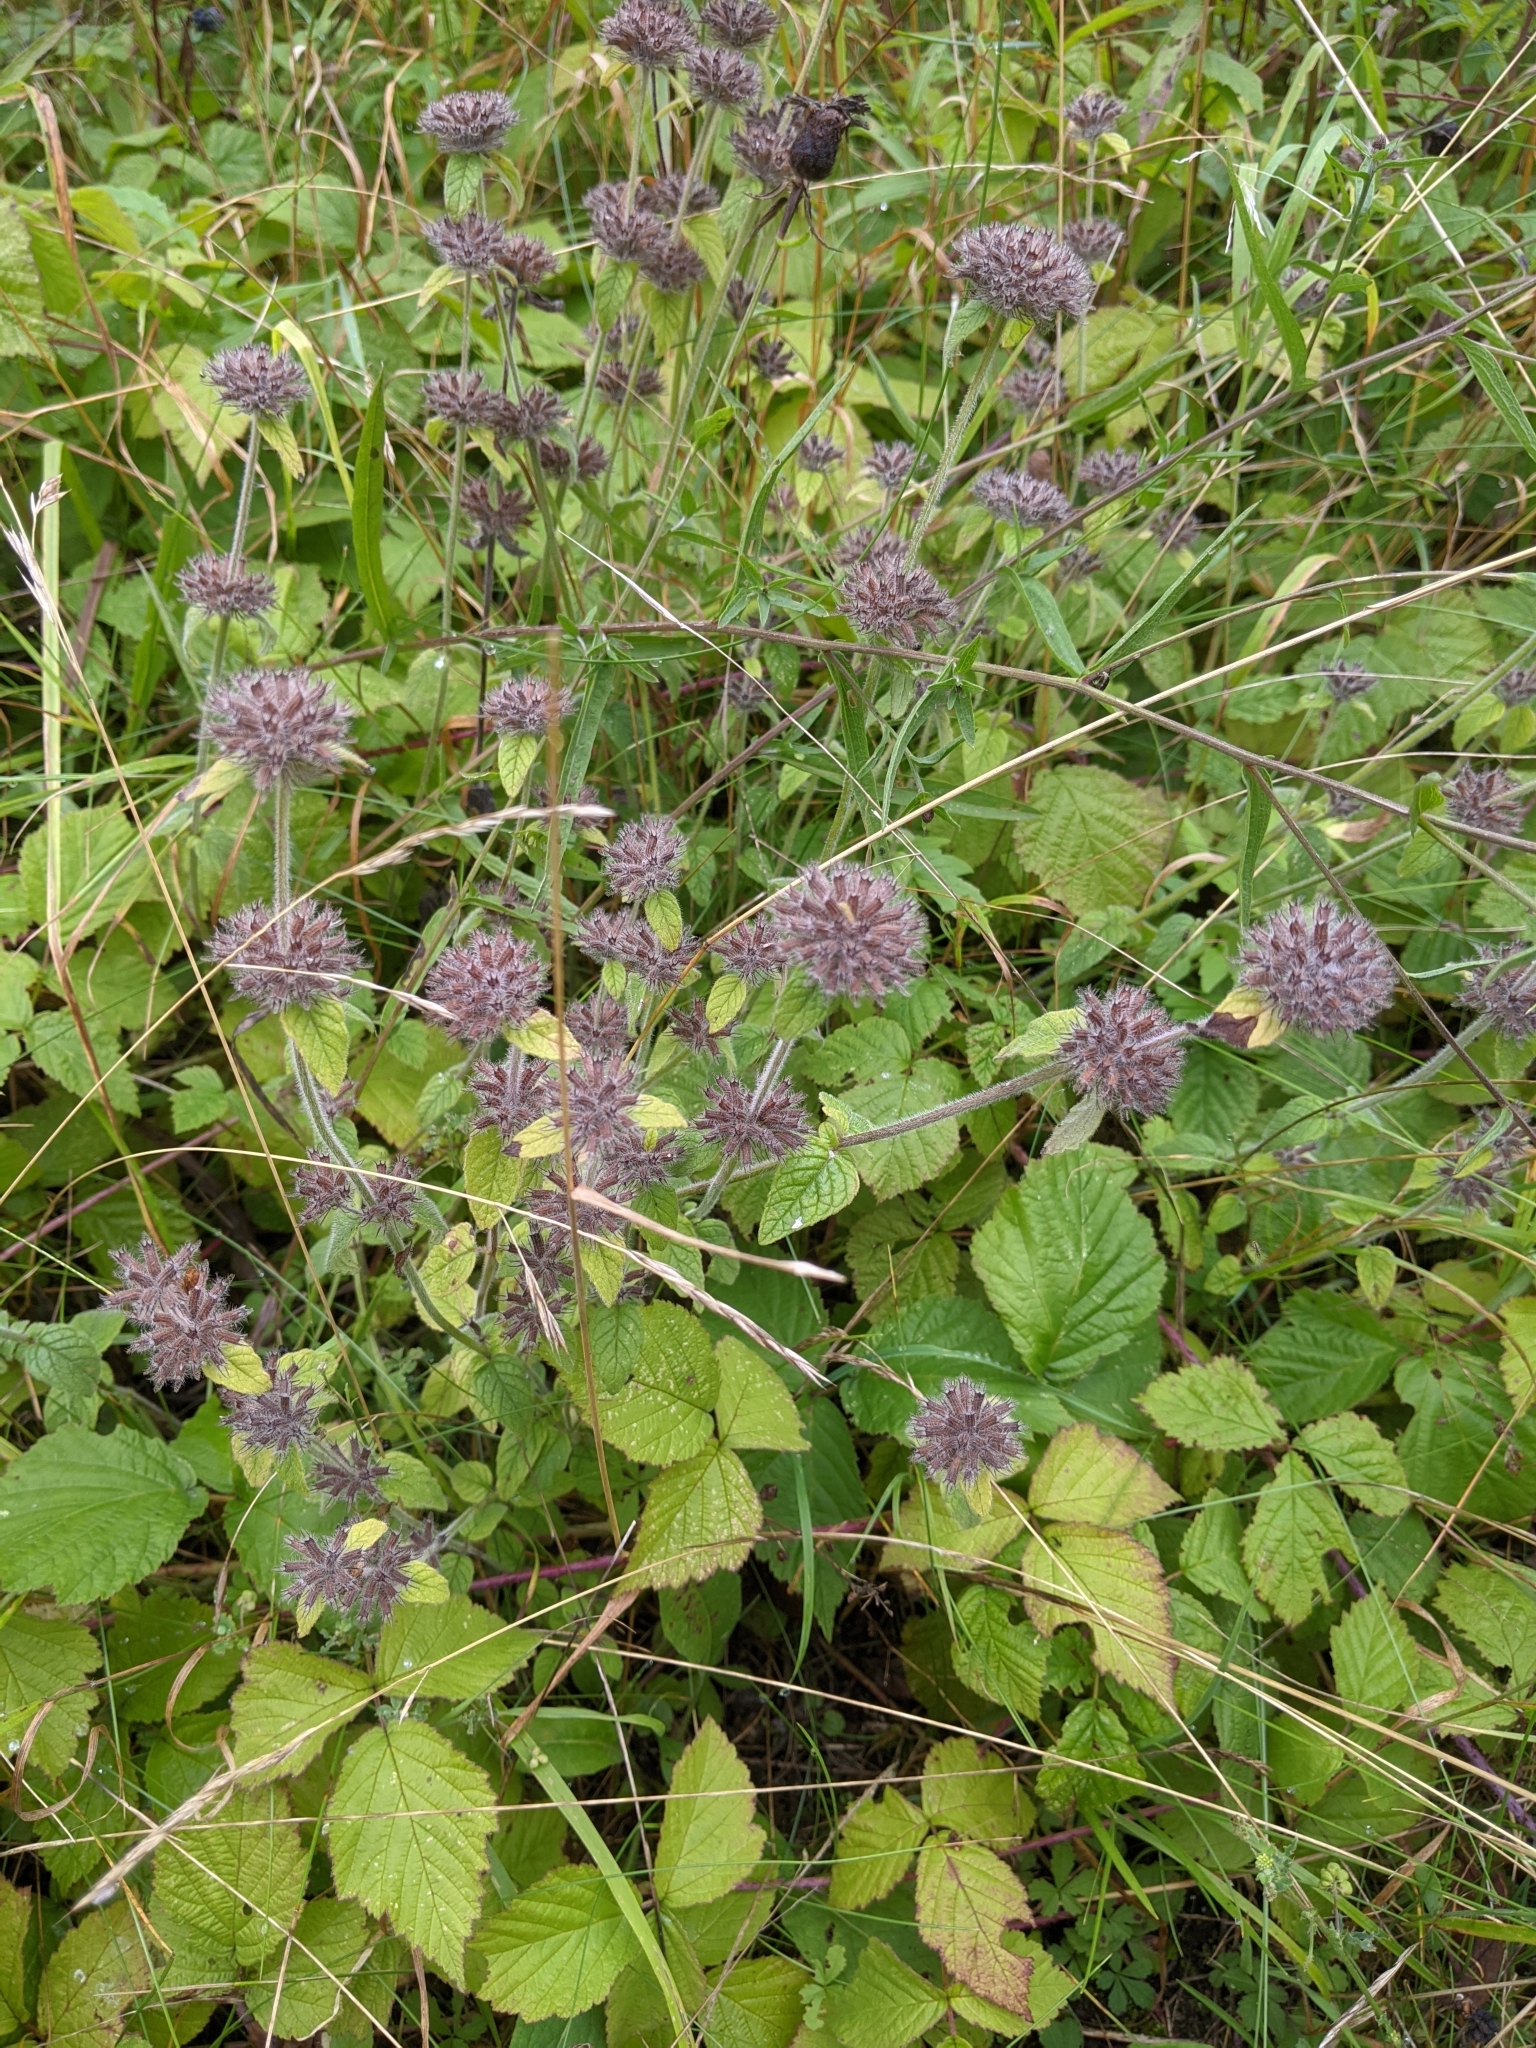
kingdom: Plantae
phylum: Tracheophyta
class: Magnoliopsida
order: Lamiales
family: Lamiaceae
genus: Clinopodium
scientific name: Clinopodium vulgare
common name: Wild basil
